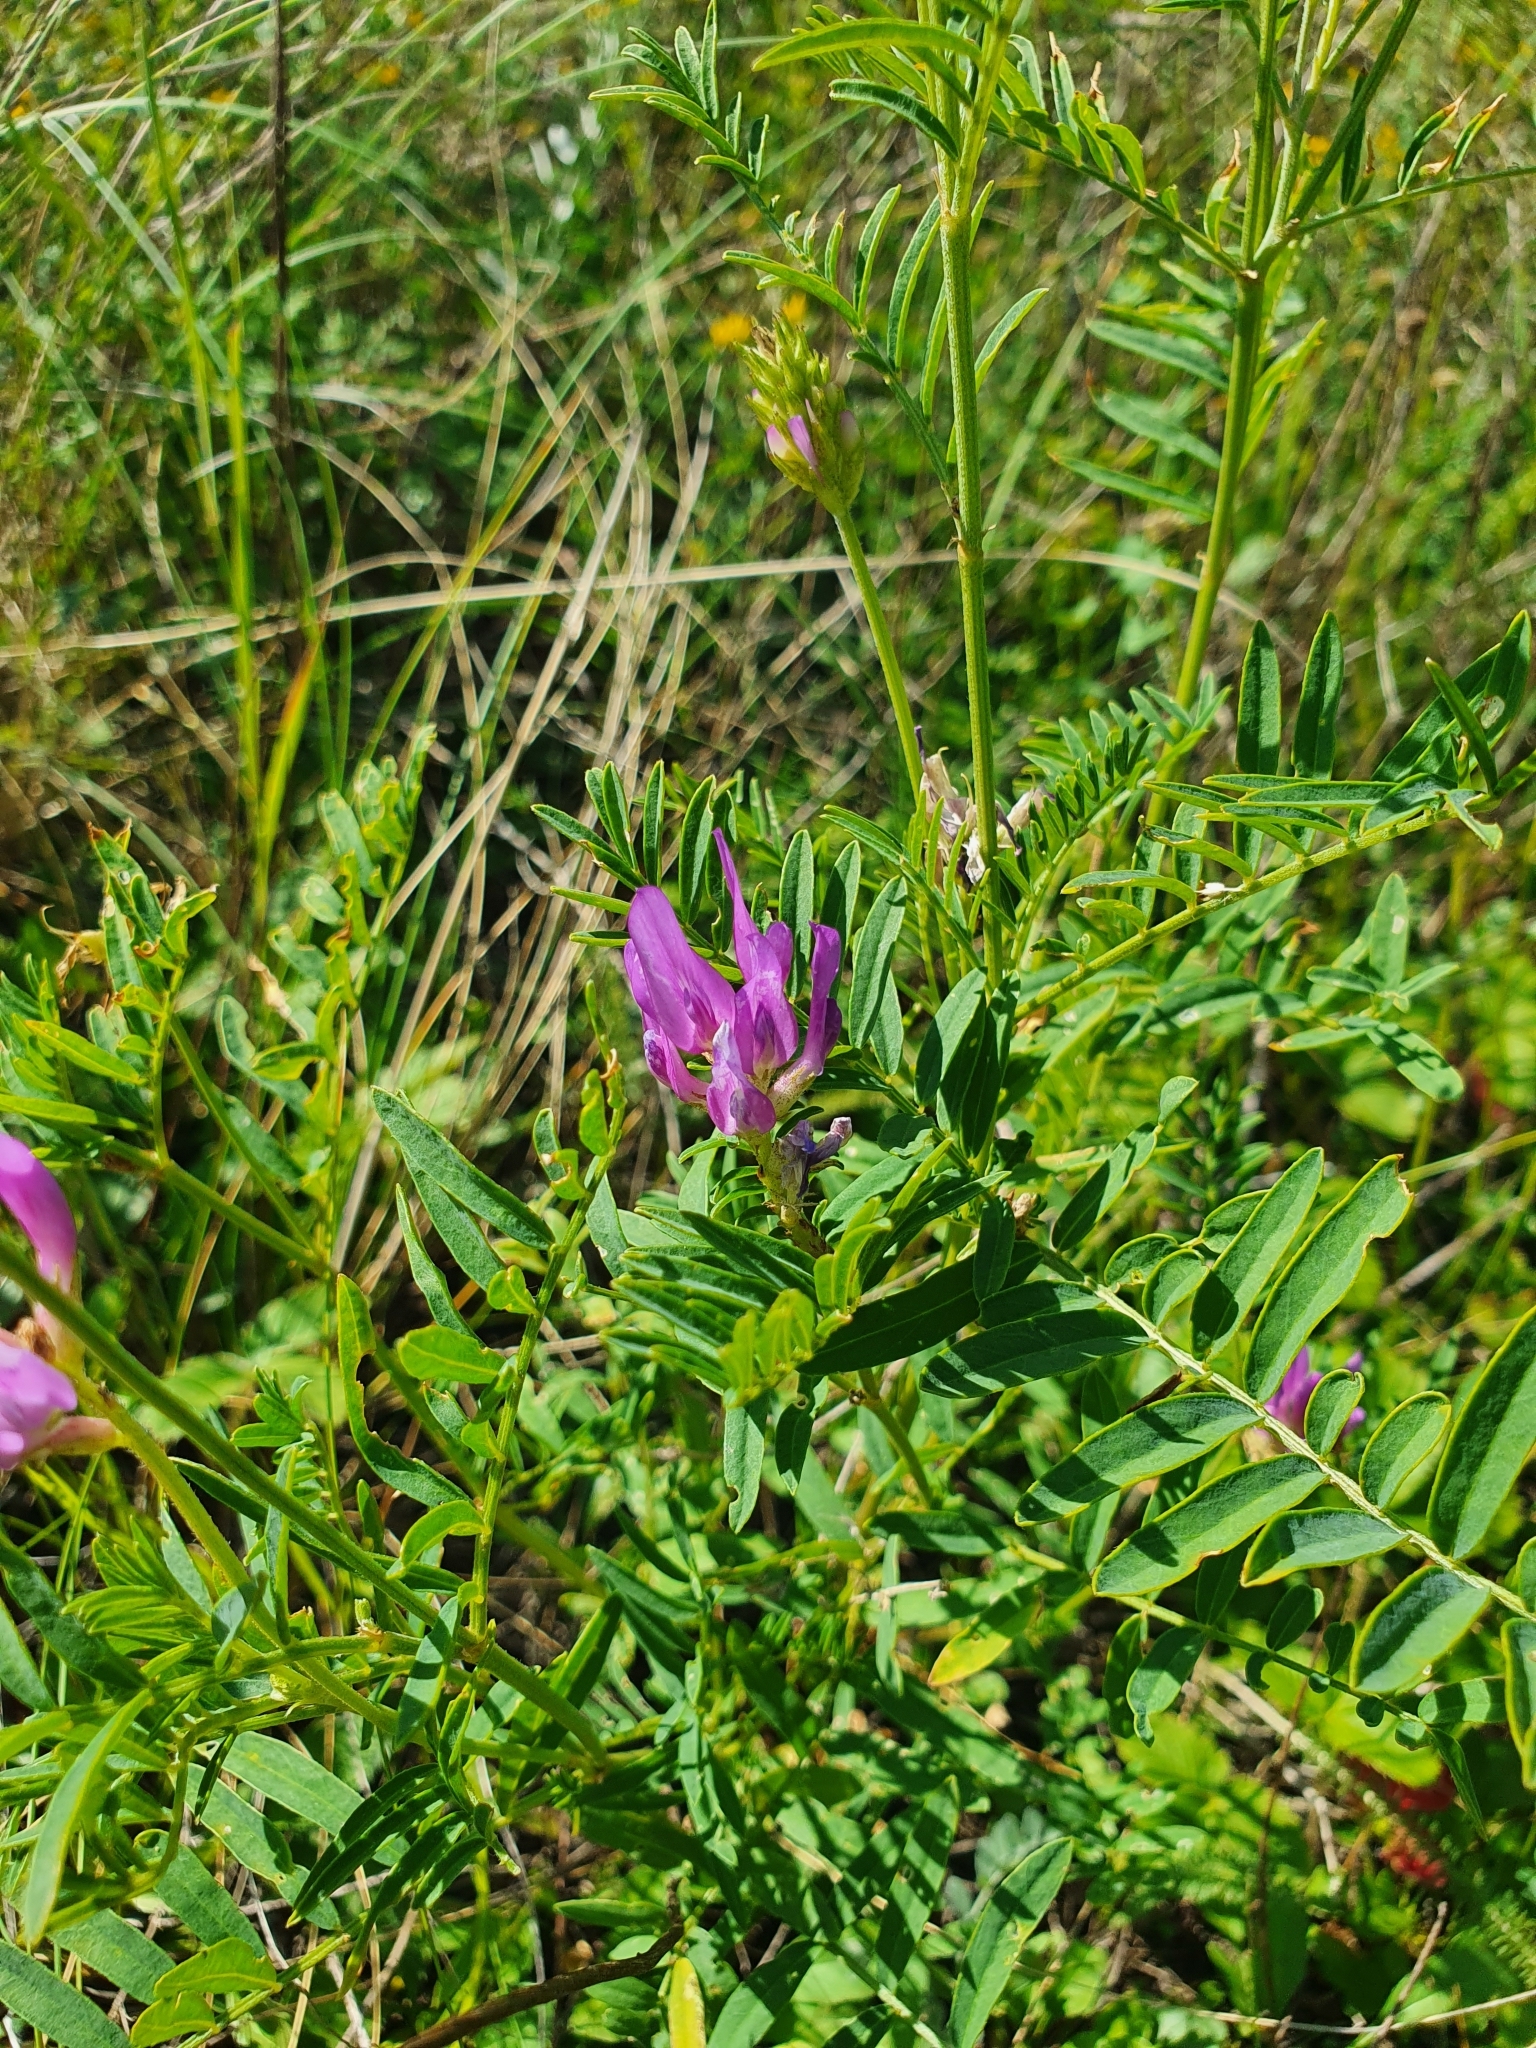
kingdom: Plantae
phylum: Tracheophyta
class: Magnoliopsida
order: Fabales
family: Fabaceae
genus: Astragalus
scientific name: Astragalus onobrychis
